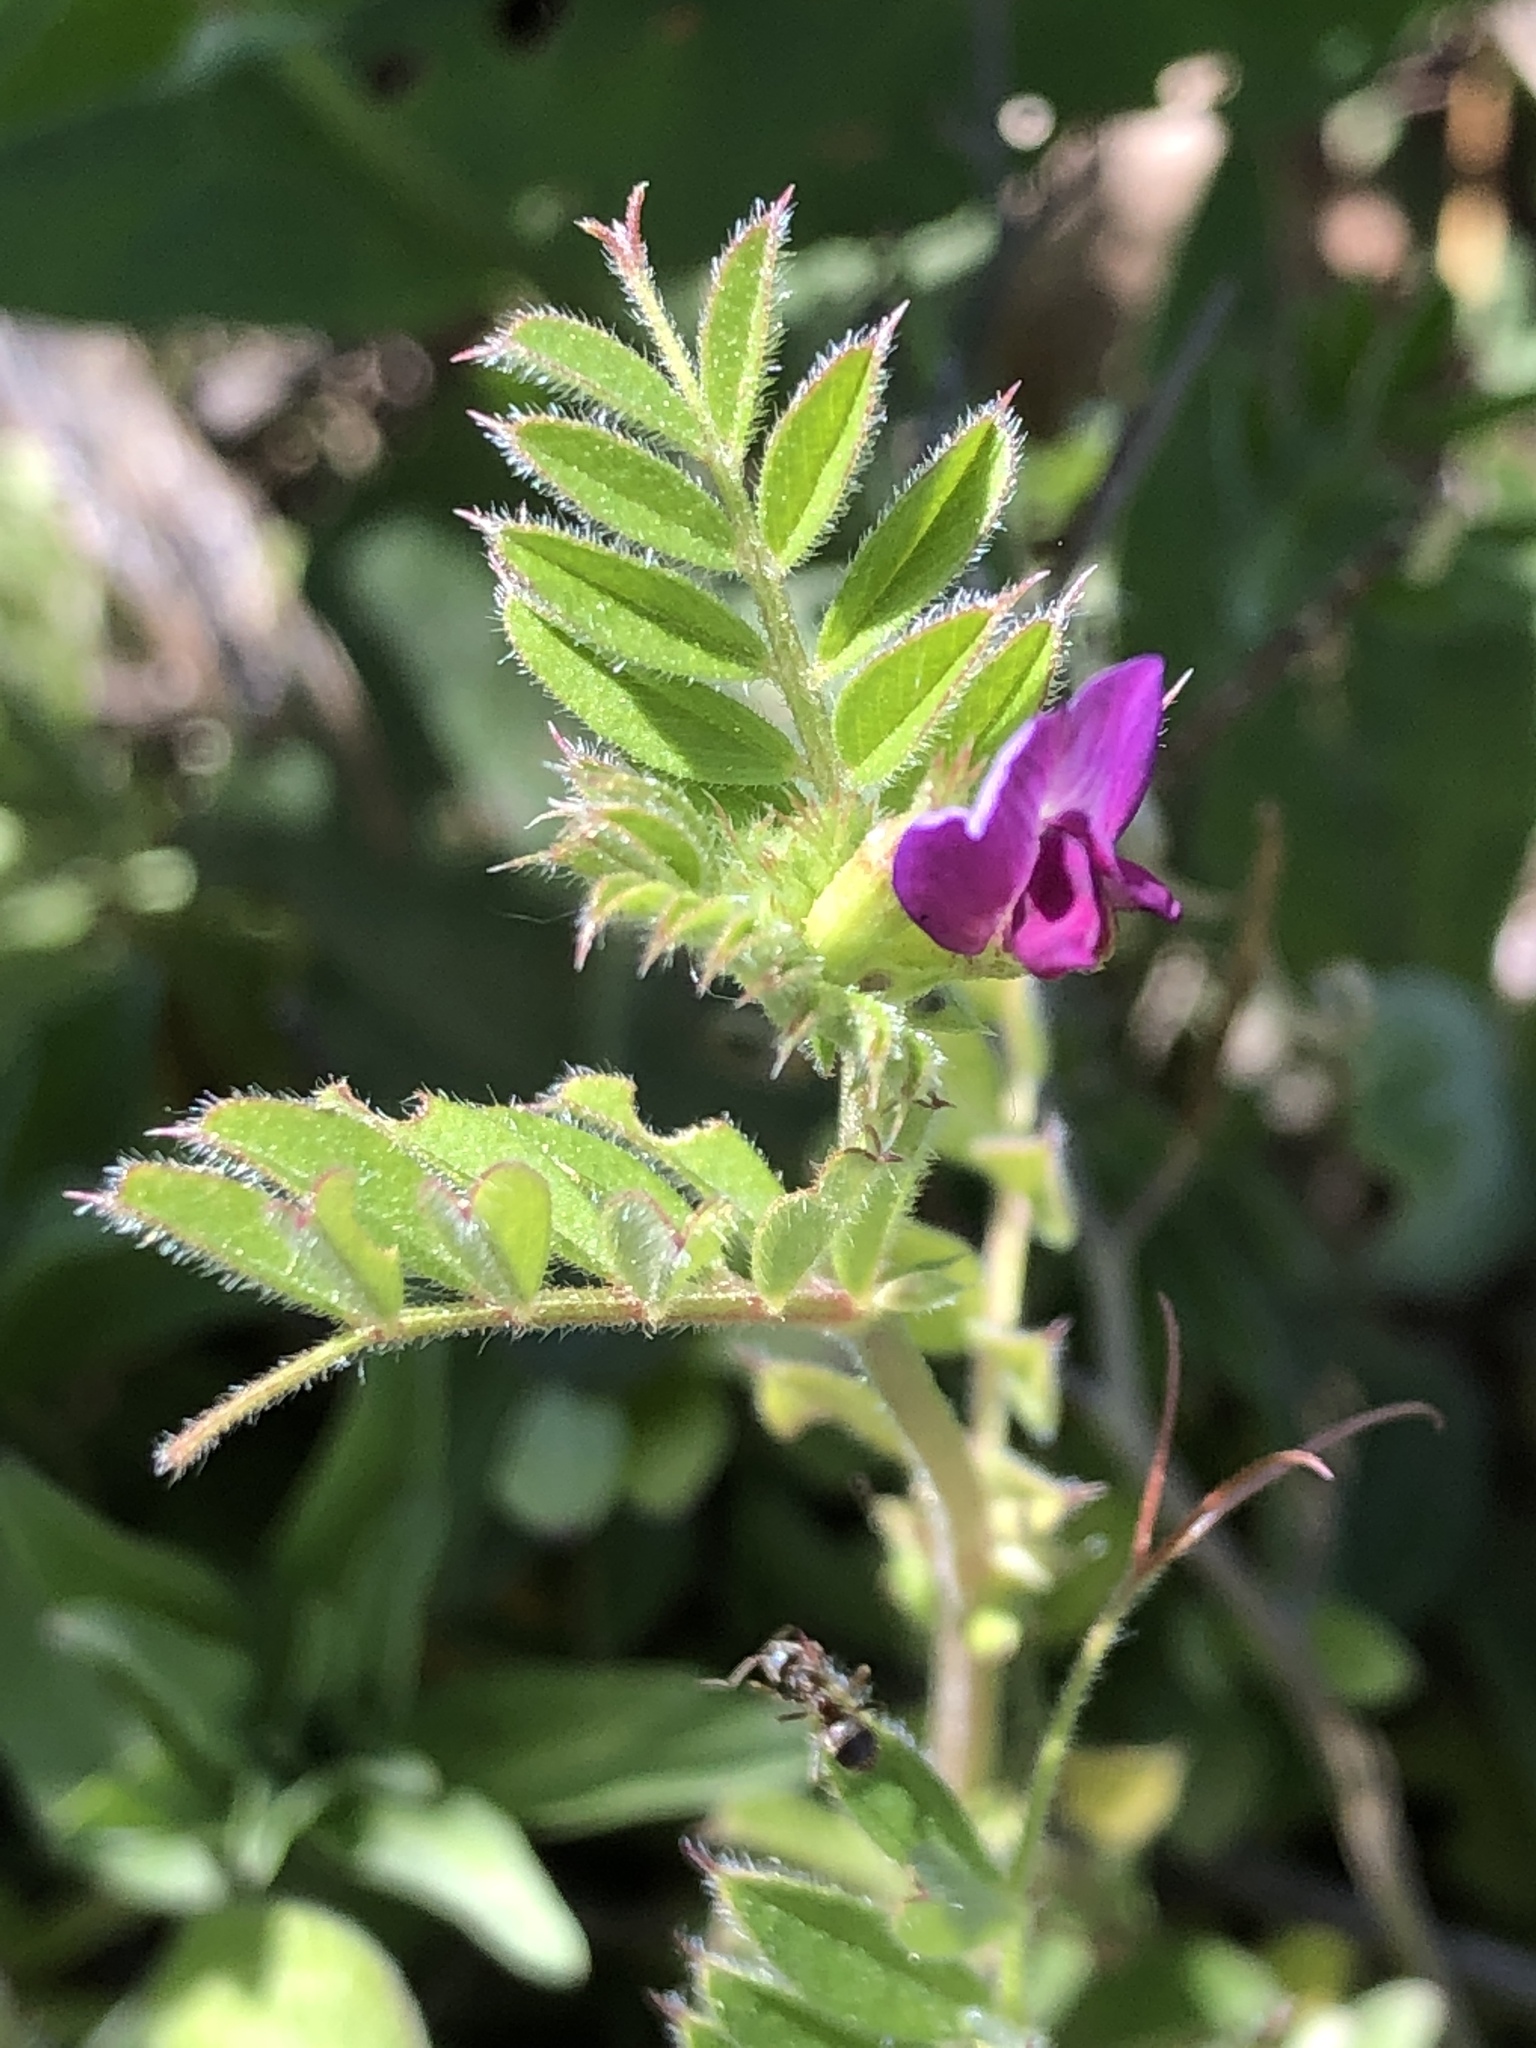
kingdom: Plantae
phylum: Tracheophyta
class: Magnoliopsida
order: Fabales
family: Fabaceae
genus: Vicia
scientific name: Vicia sativa
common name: Garden vetch
